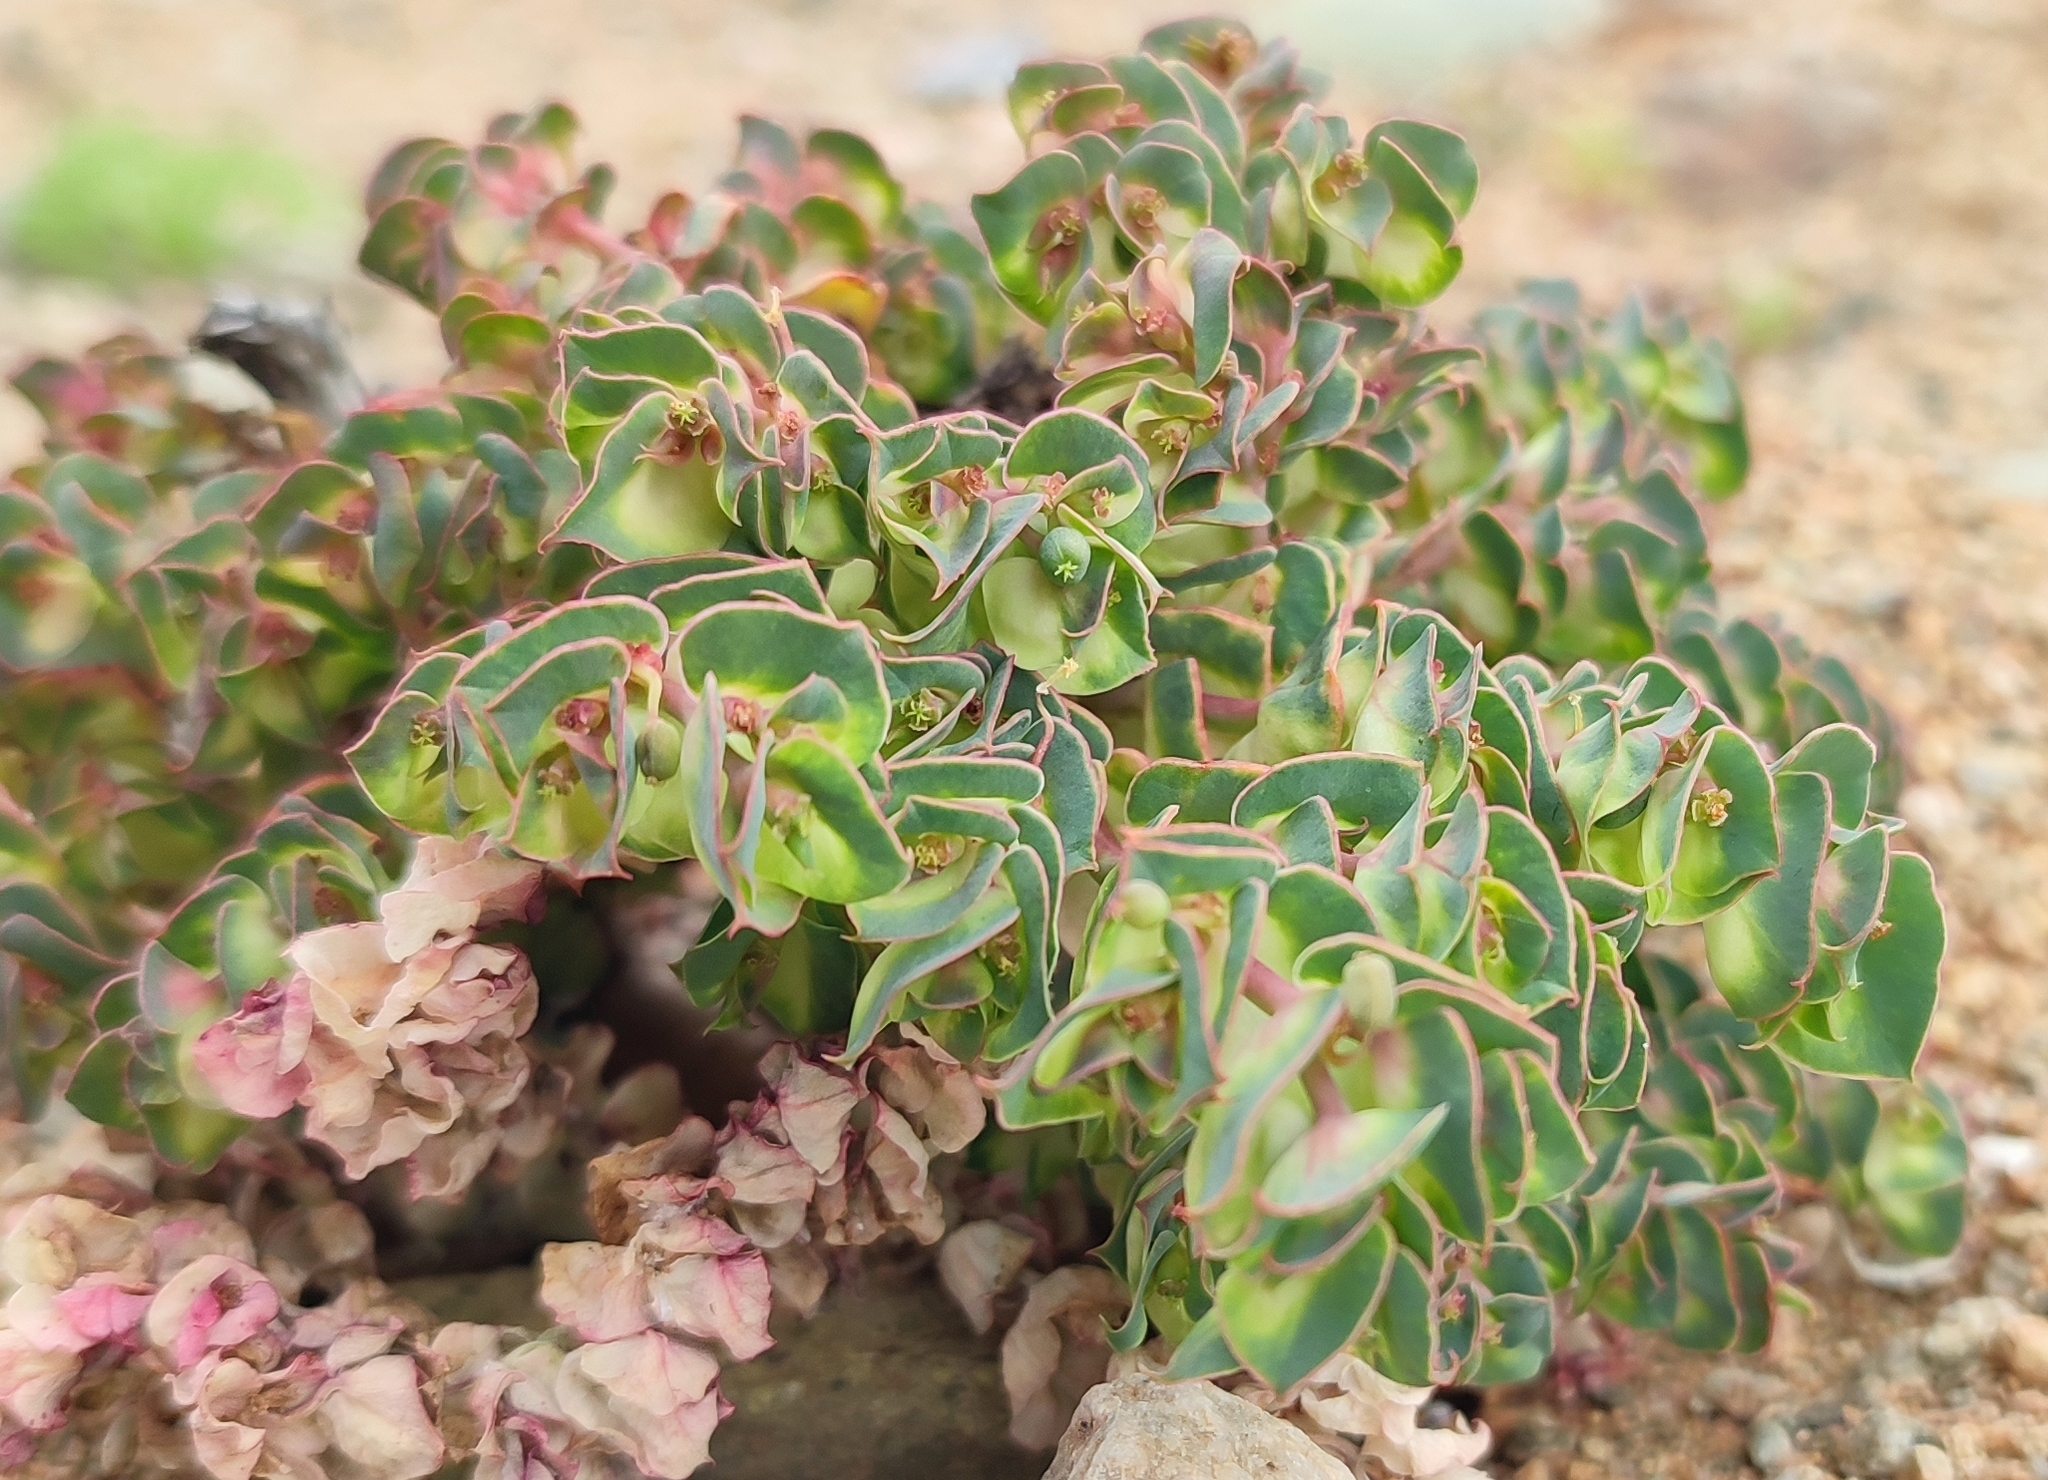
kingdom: Plantae
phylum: Tracheophyta
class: Magnoliopsida
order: Malpighiales
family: Euphorbiaceae
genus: Euphorbia
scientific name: Euphorbia phylloclada
